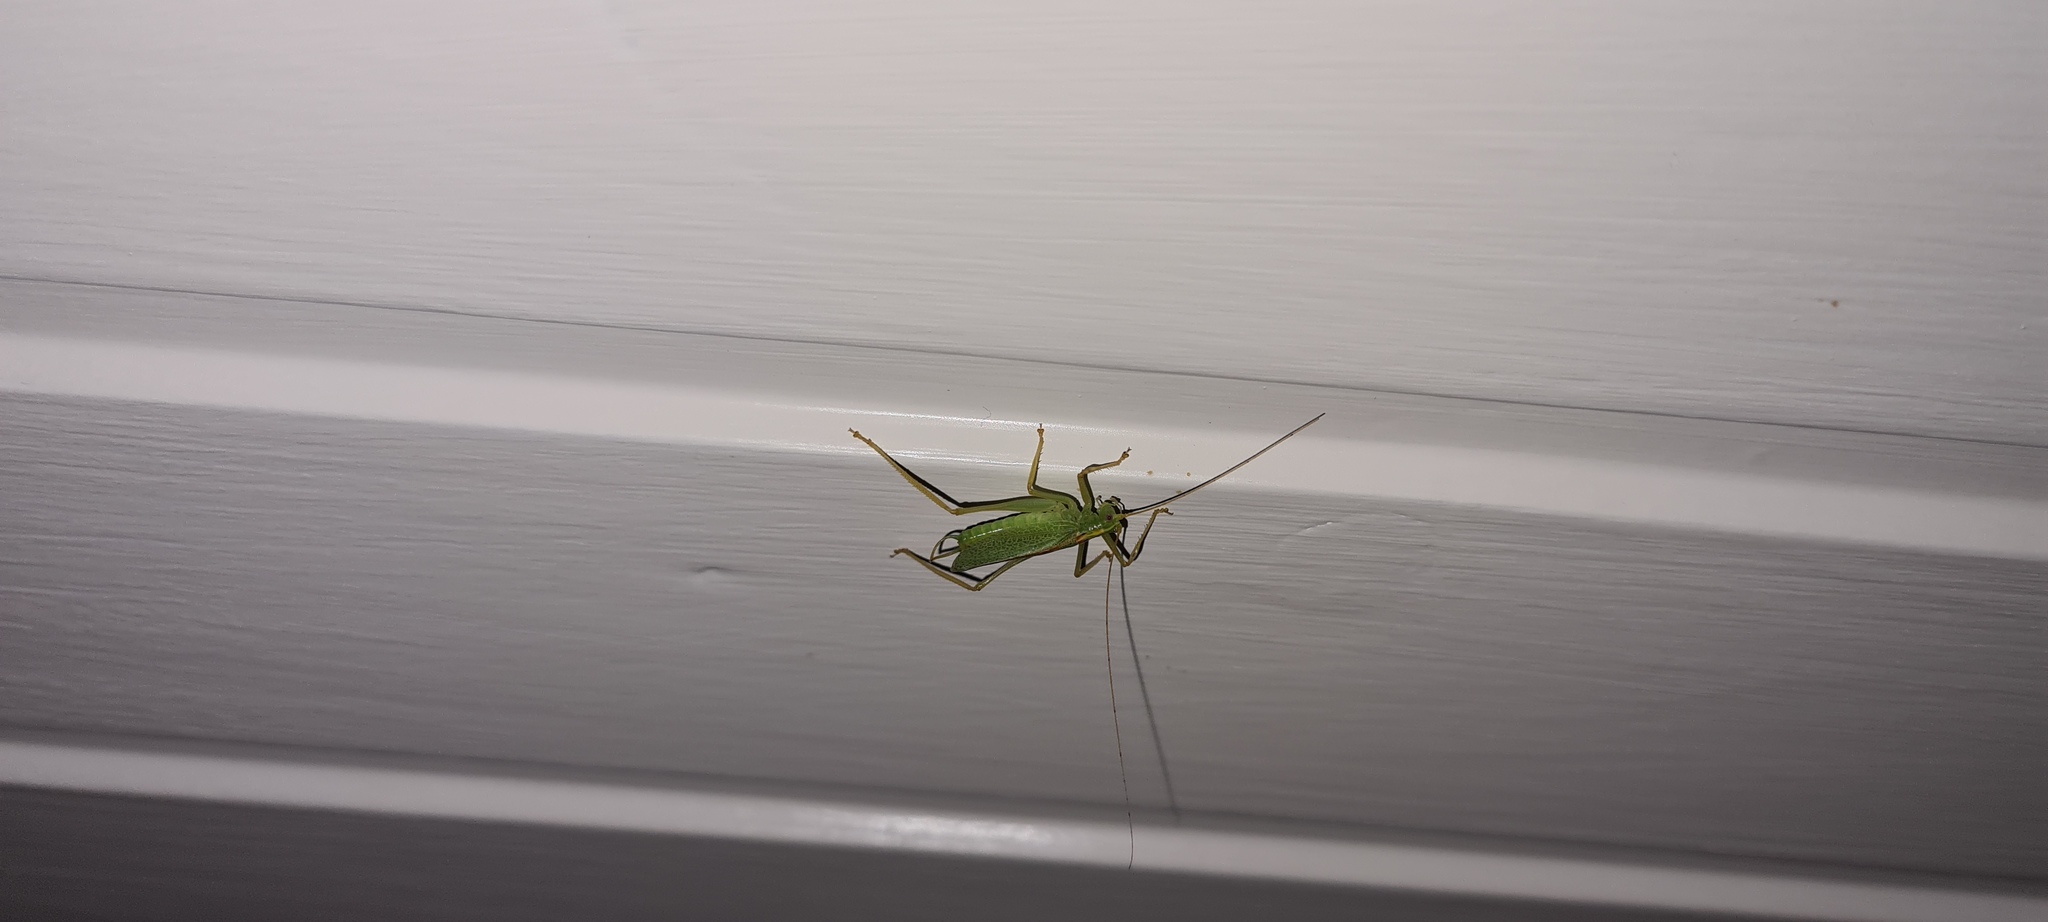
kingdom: Animalia
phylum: Arthropoda
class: Insecta
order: Orthoptera
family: Tettigoniidae
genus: Meconema
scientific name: Meconema thalassinum
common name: Oak bush-cricket
